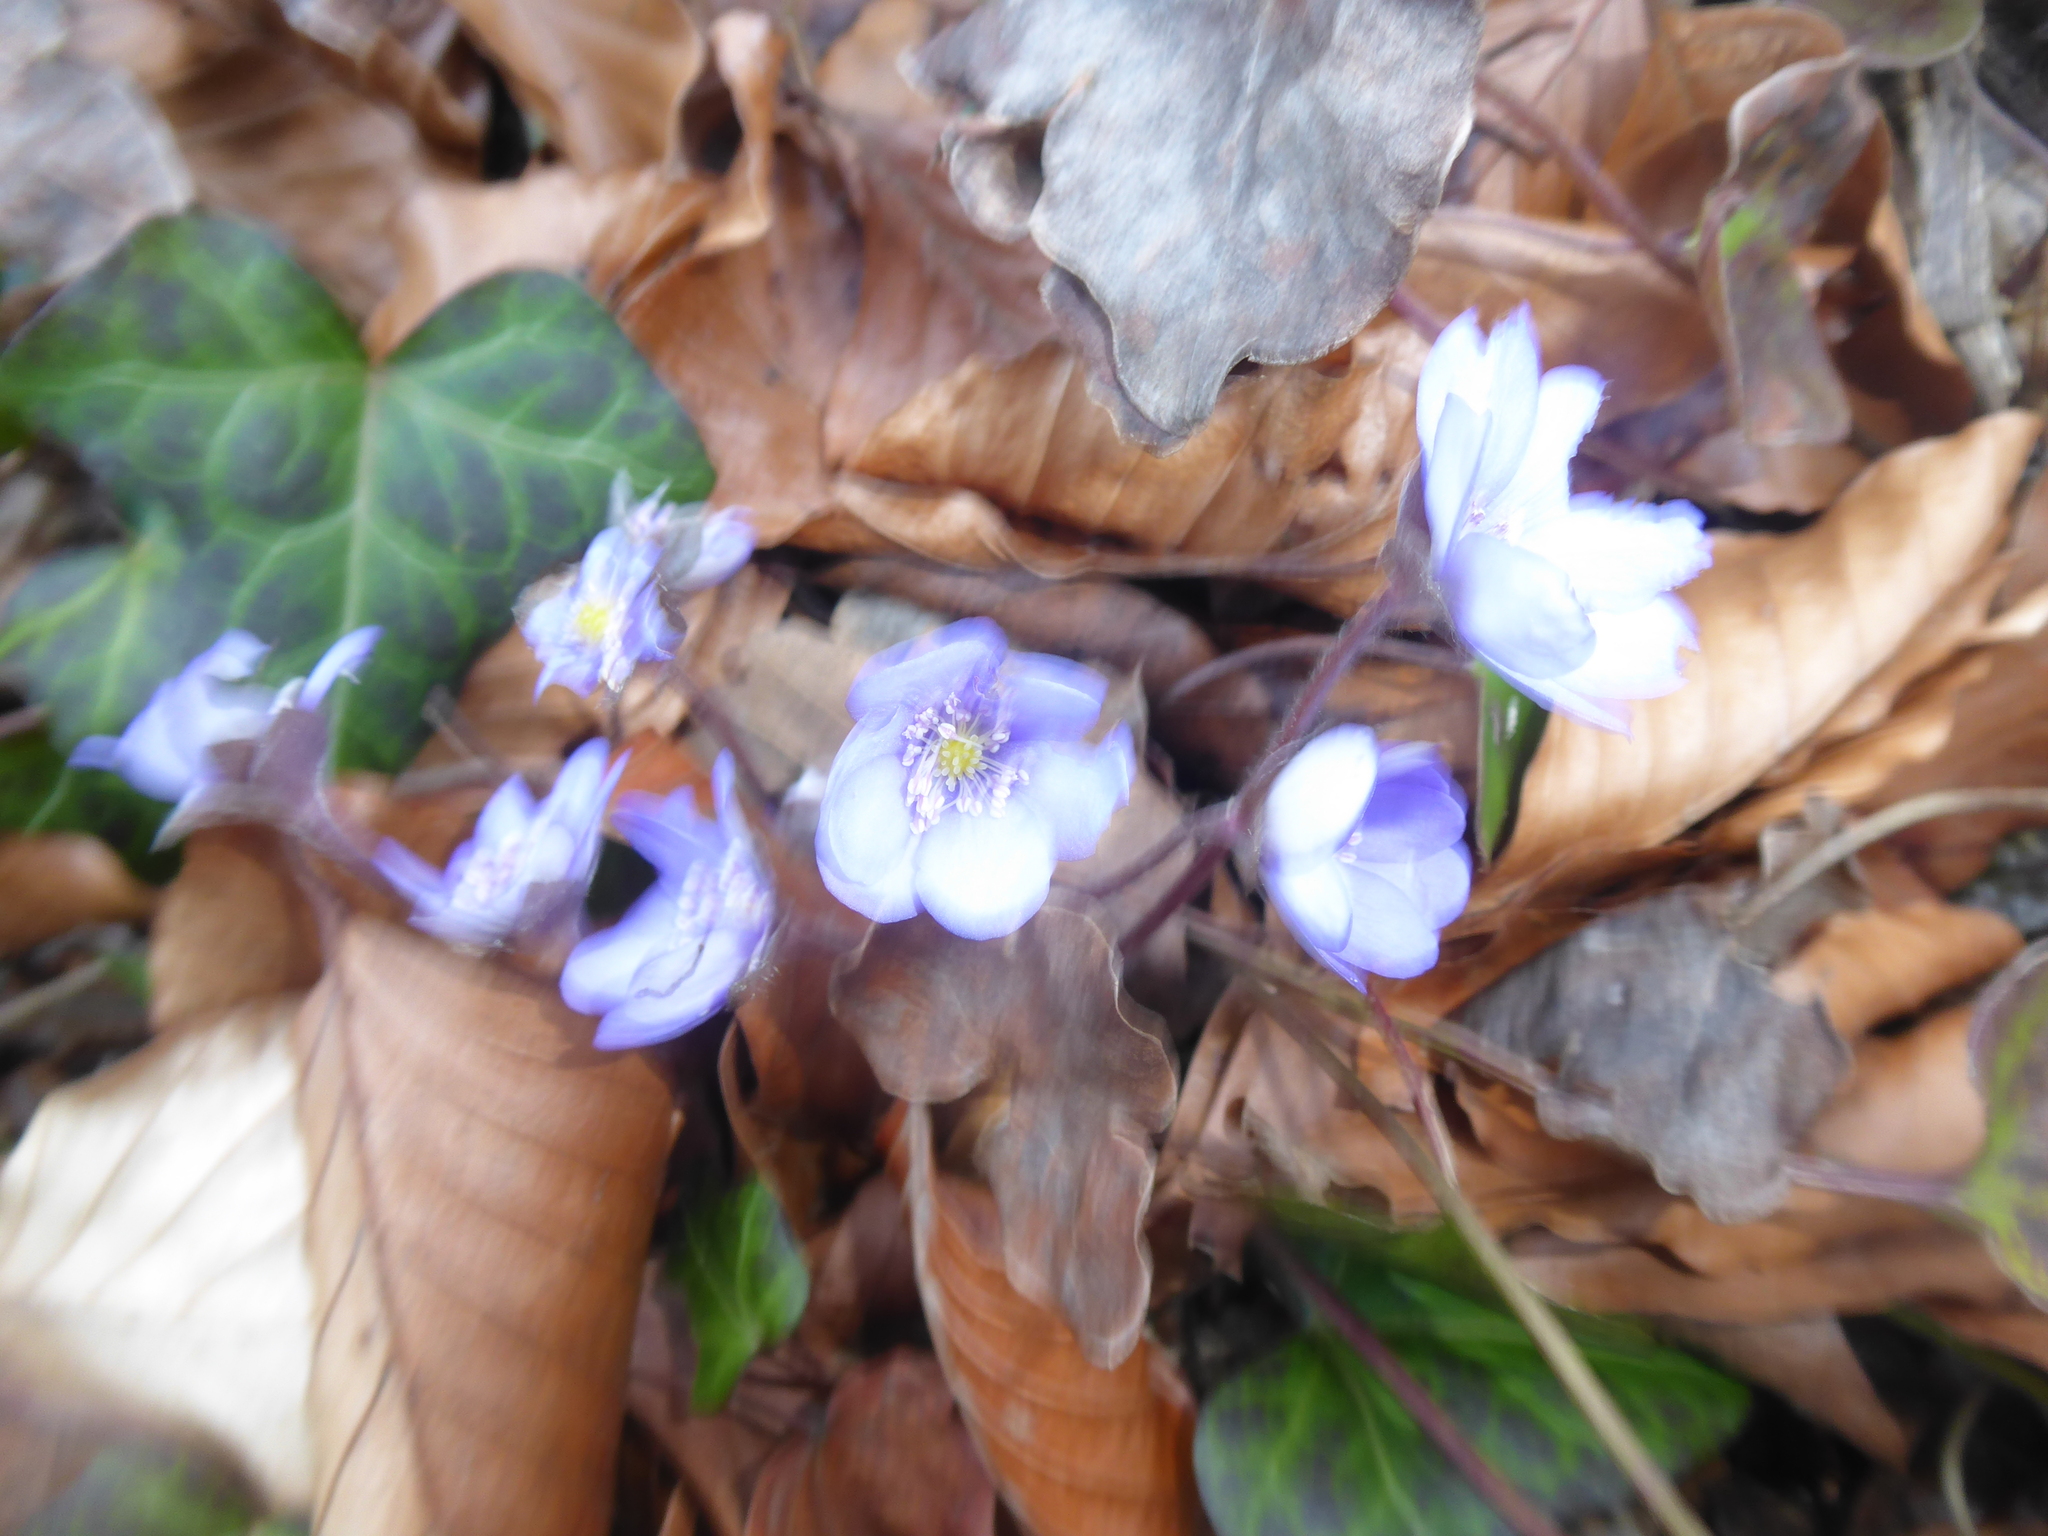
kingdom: Plantae
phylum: Tracheophyta
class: Magnoliopsida
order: Ranunculales
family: Ranunculaceae
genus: Hepatica
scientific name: Hepatica nobilis
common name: Liverleaf
